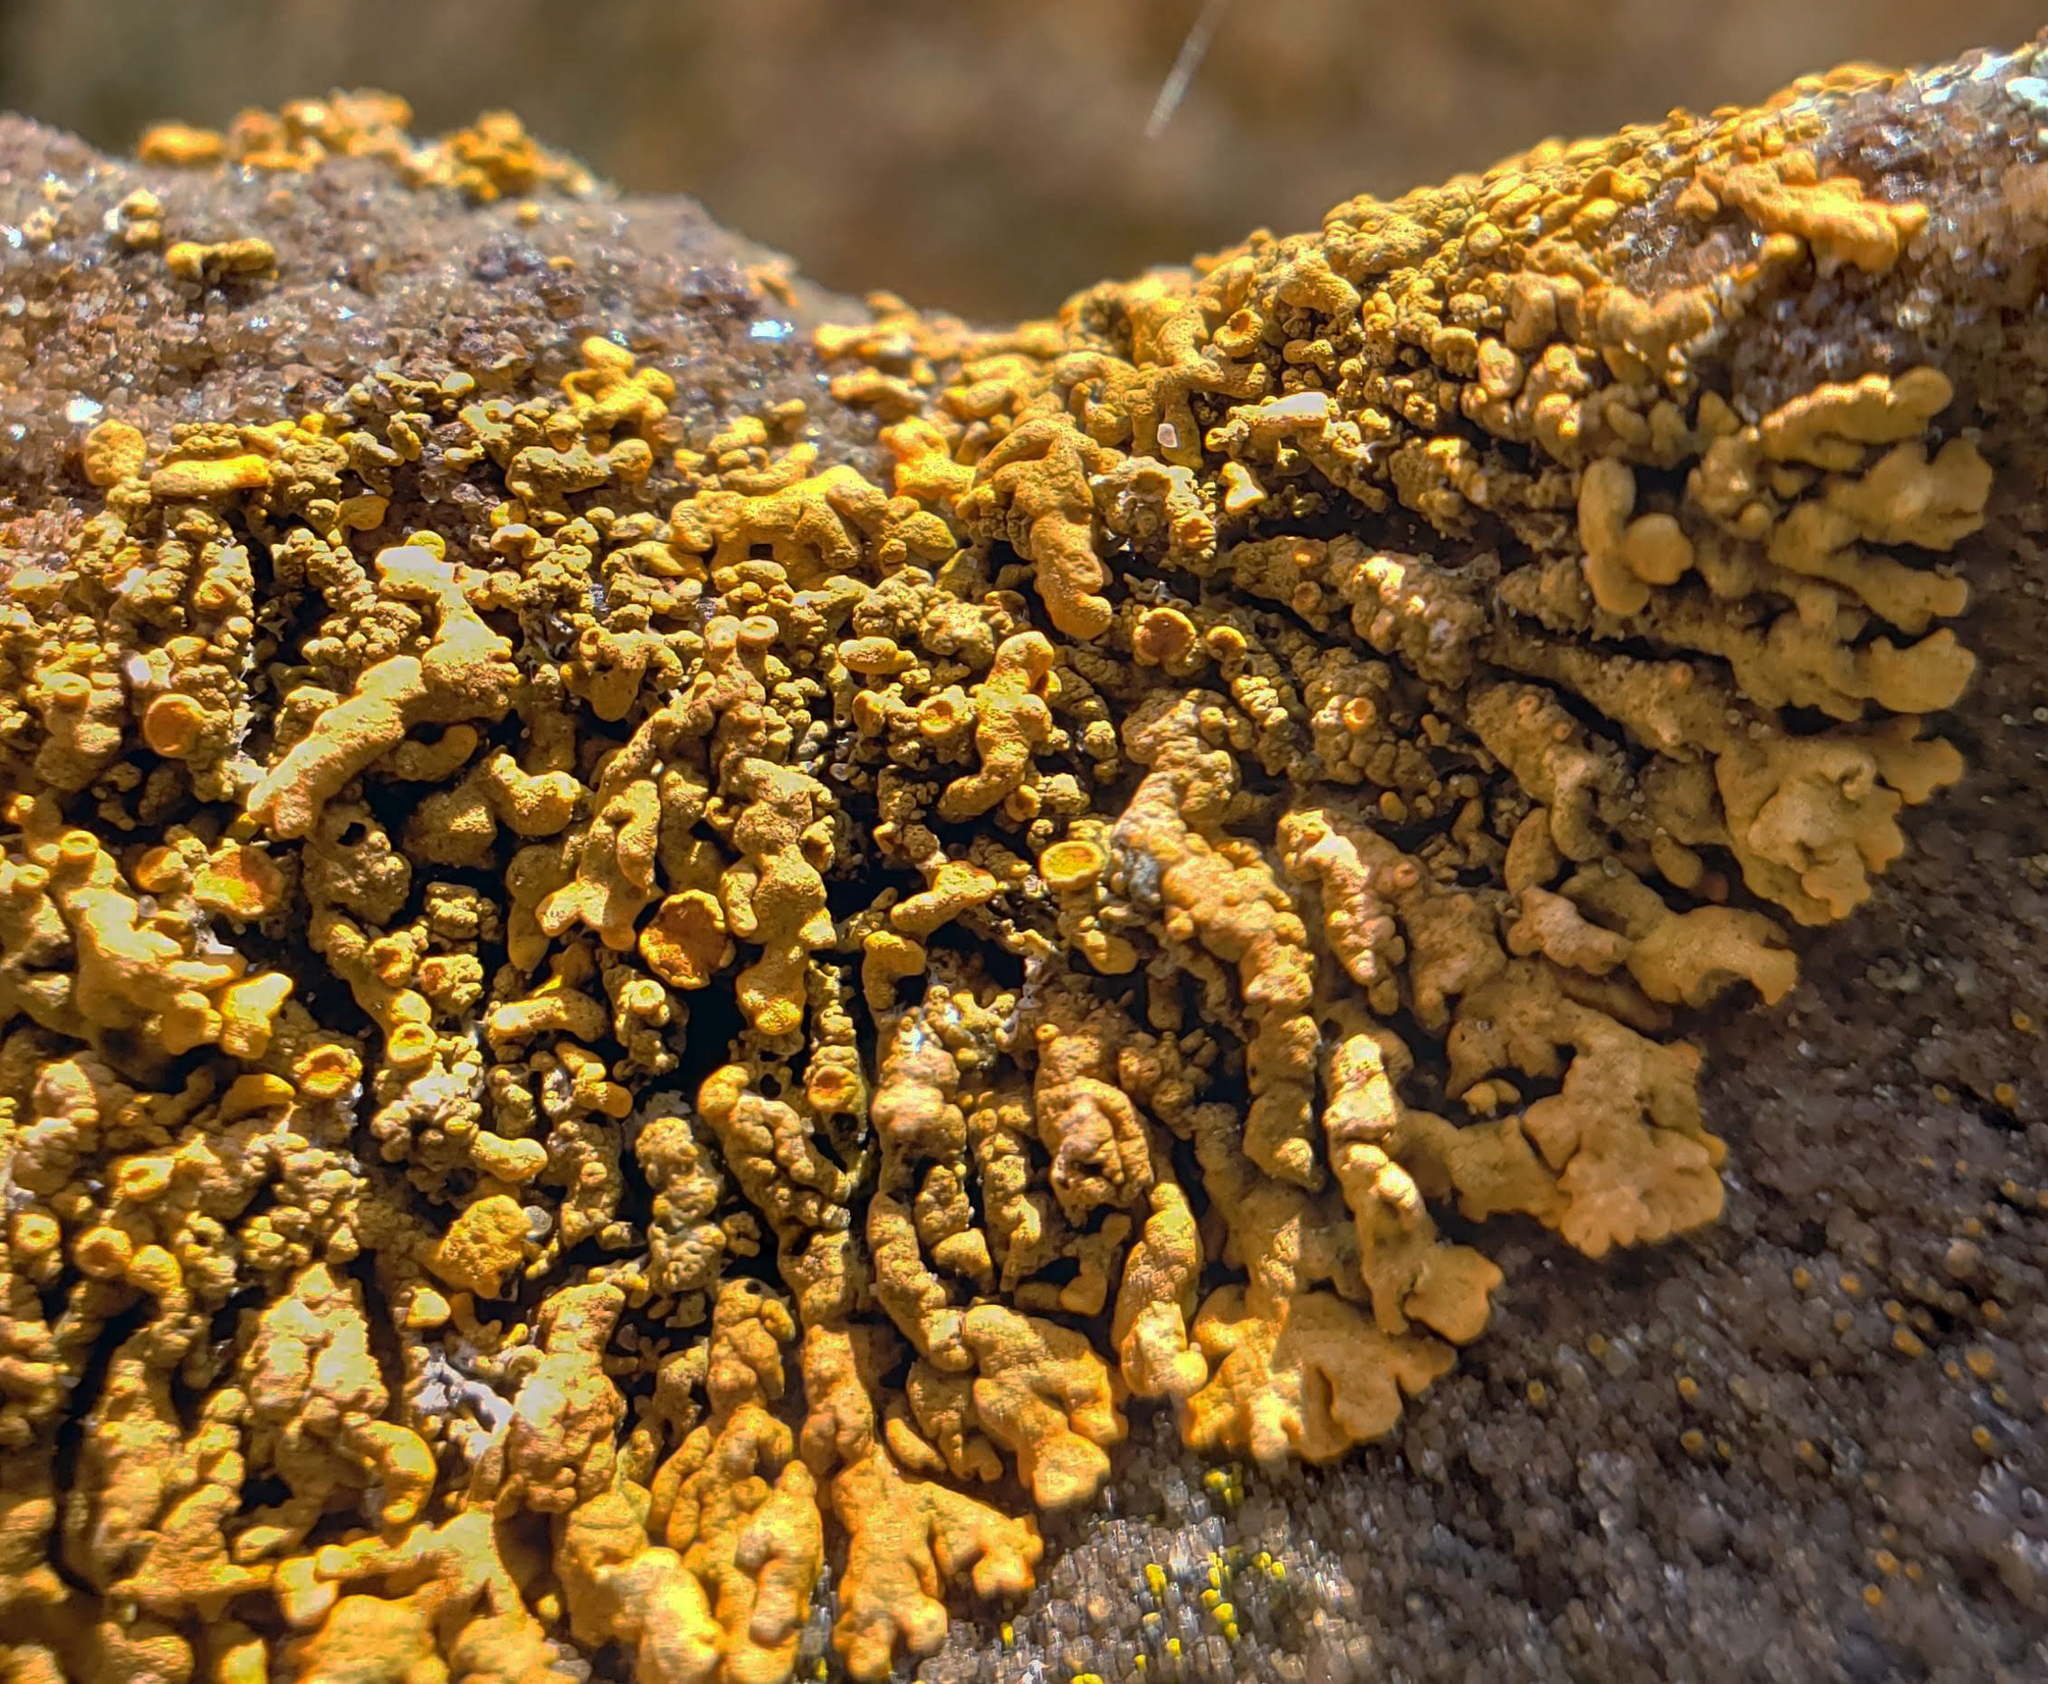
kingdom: Fungi
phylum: Ascomycota
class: Lecanoromycetes
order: Teloschistales
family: Teloschistaceae
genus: Xanthoria
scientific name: Xanthoria elegans
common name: Elegant sunburst lichen
